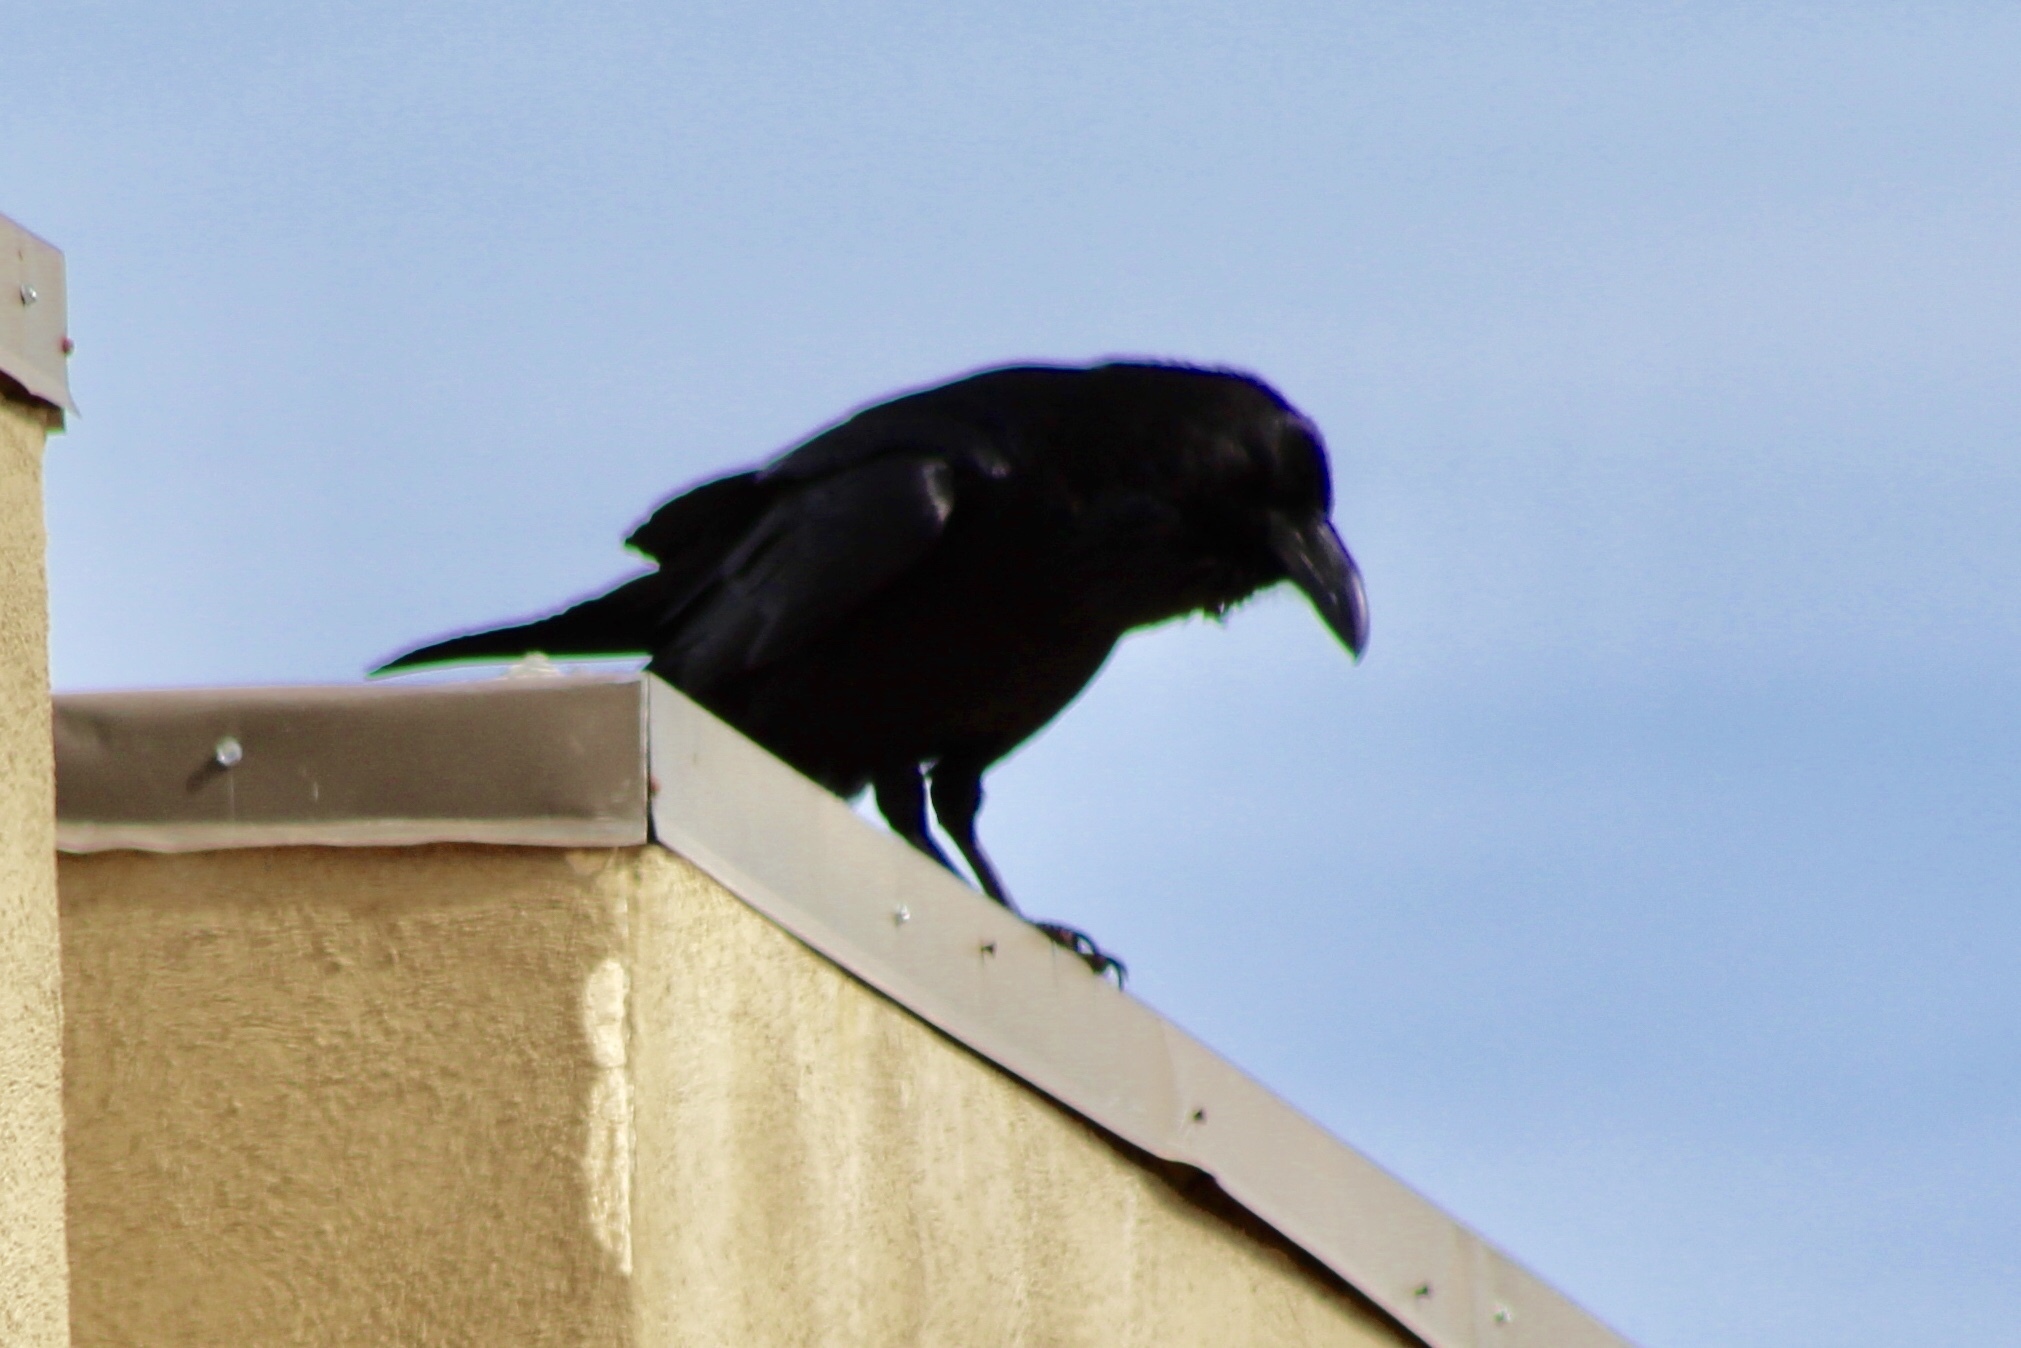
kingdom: Animalia
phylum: Chordata
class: Aves
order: Passeriformes
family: Corvidae
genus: Corvus
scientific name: Corvus corax
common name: Common raven
